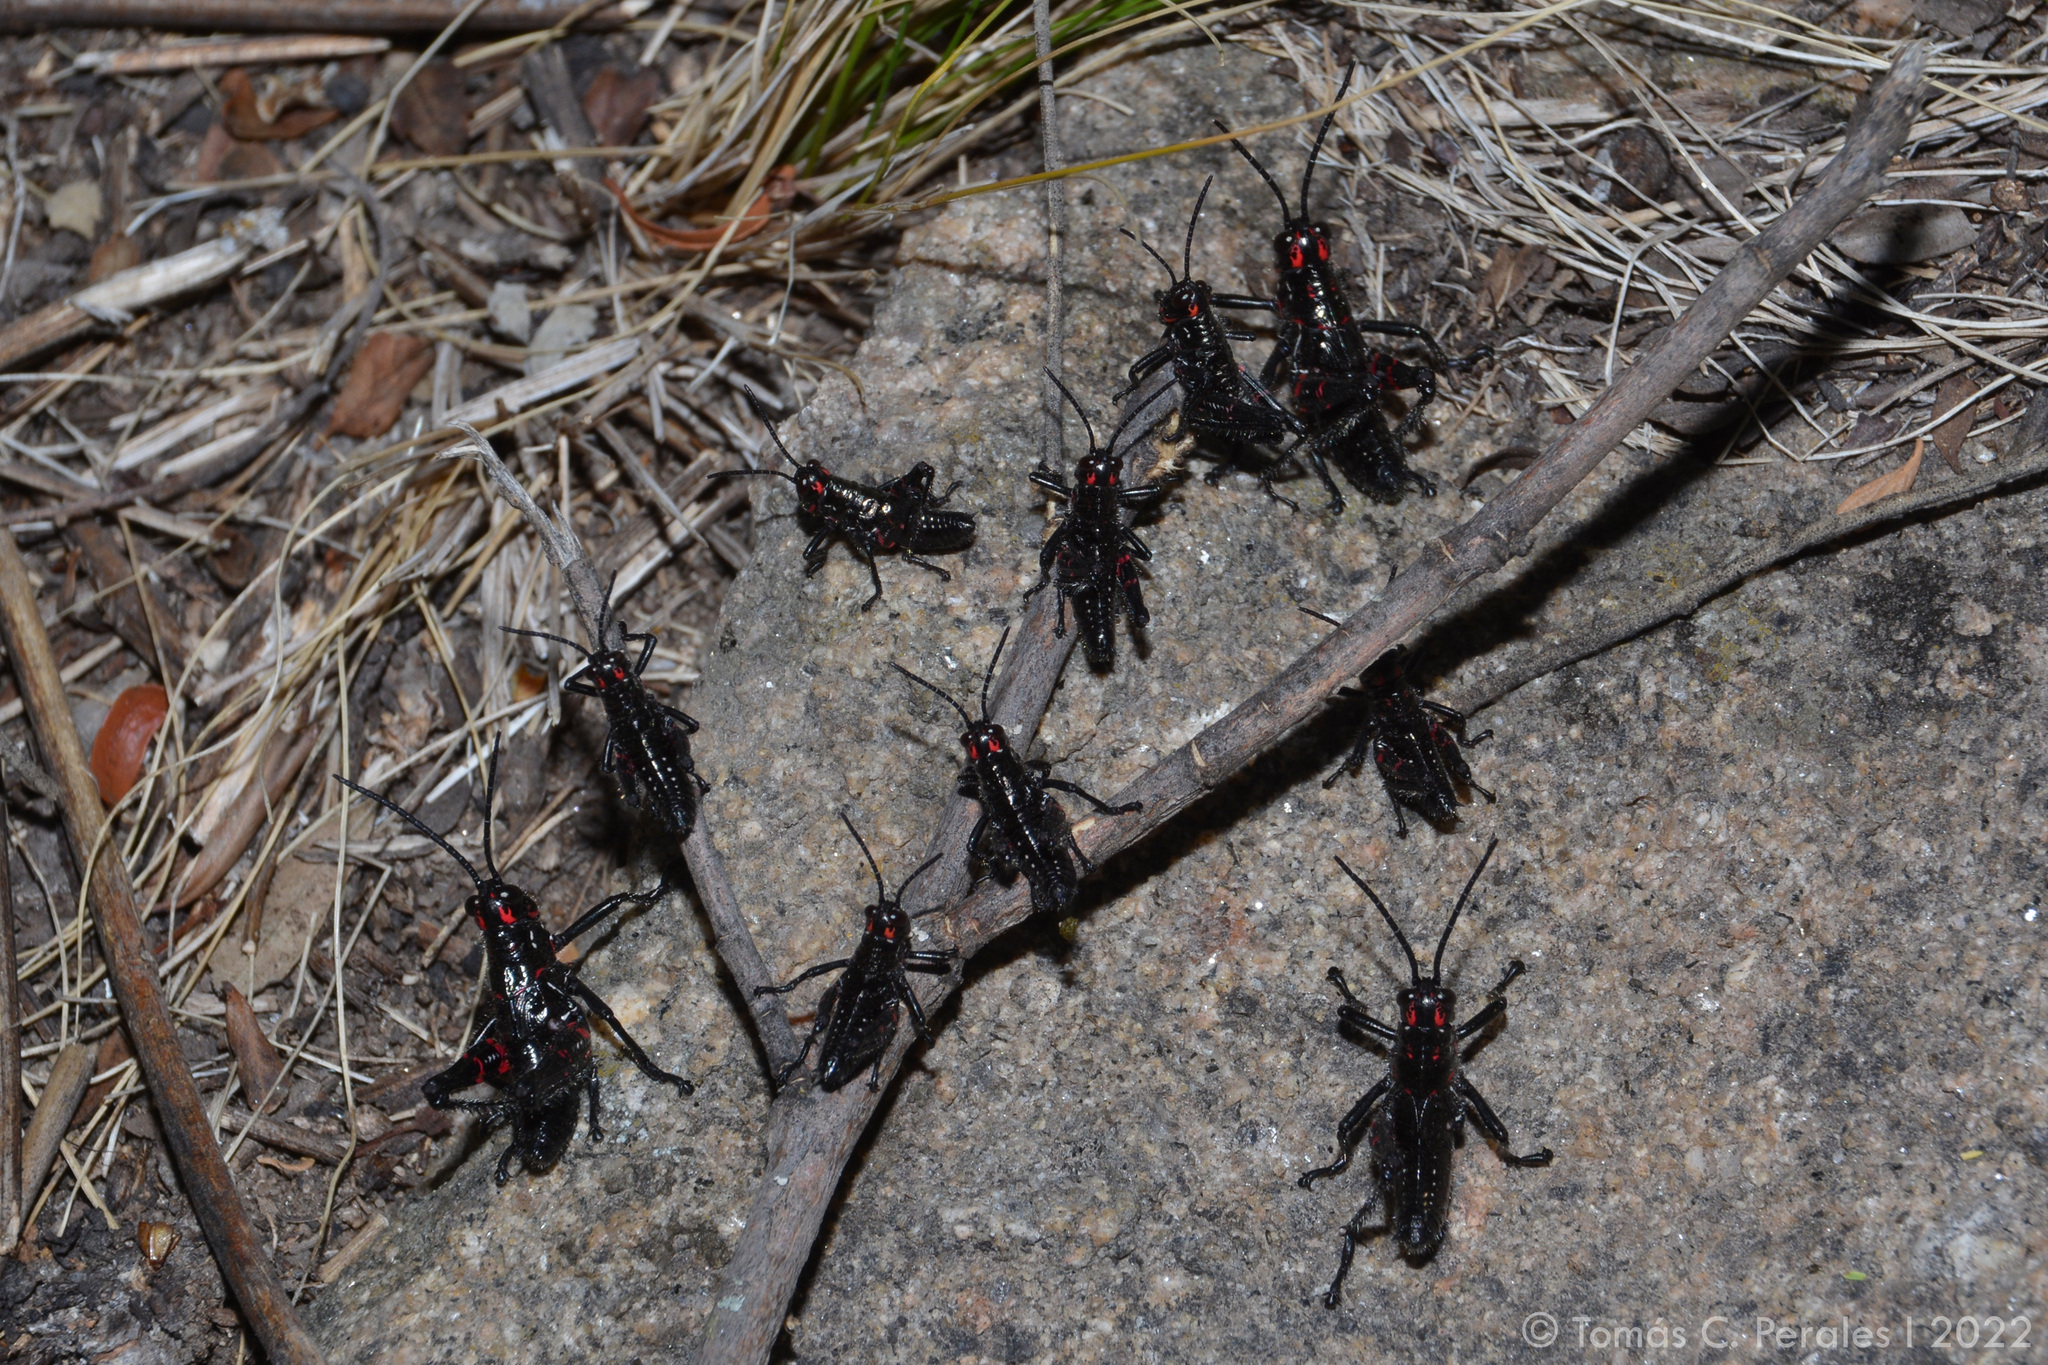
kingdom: Animalia
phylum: Arthropoda
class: Insecta
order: Orthoptera
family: Romaleidae
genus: Chromacris
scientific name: Chromacris speciosa
